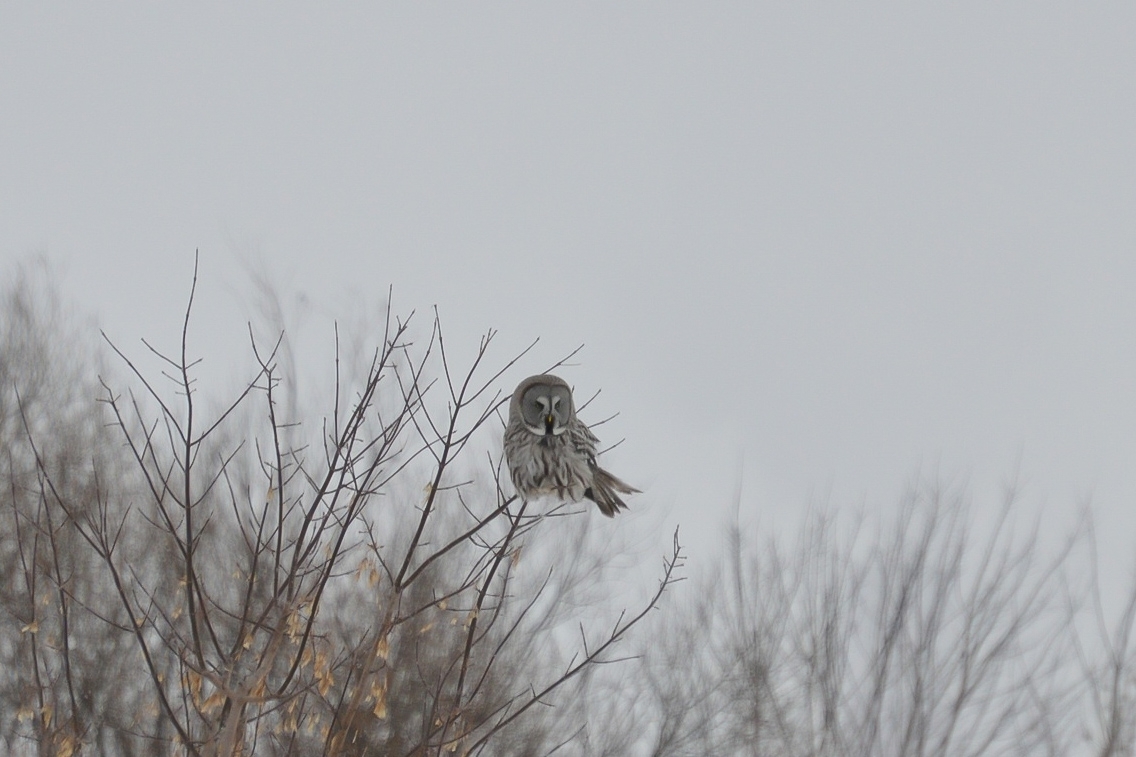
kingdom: Animalia
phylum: Chordata
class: Aves
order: Strigiformes
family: Strigidae
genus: Strix
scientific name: Strix nebulosa
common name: Great grey owl
